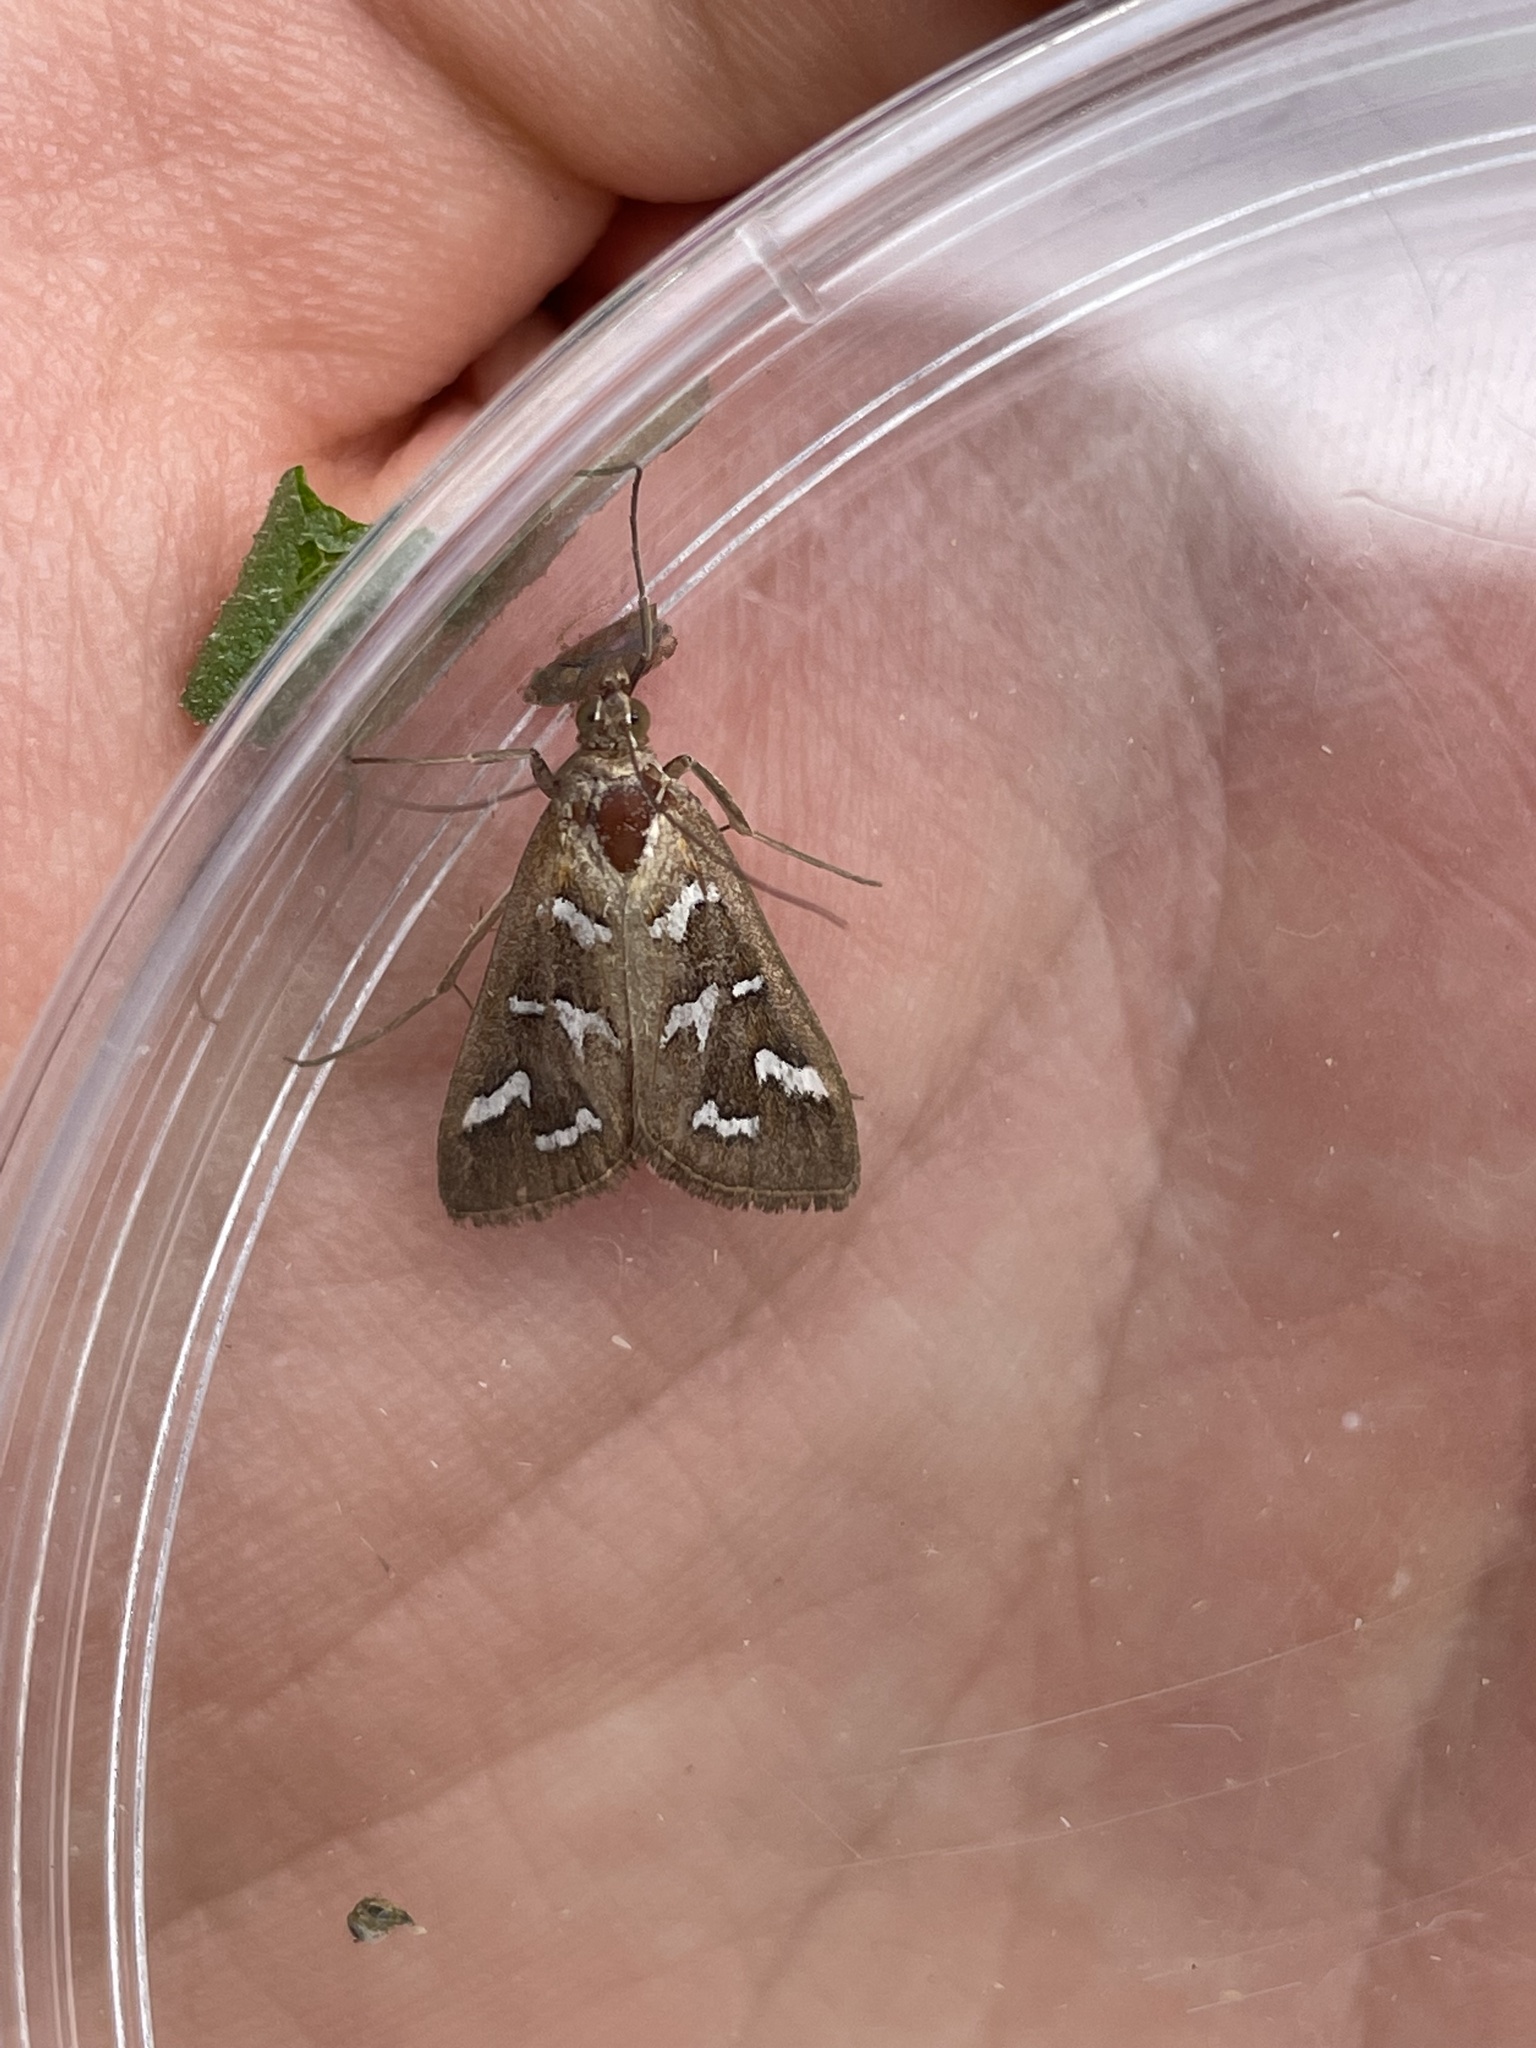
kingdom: Animalia
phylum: Arthropoda
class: Insecta
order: Lepidoptera
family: Crambidae
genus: Diastictis
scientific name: Diastictis fracturalis
